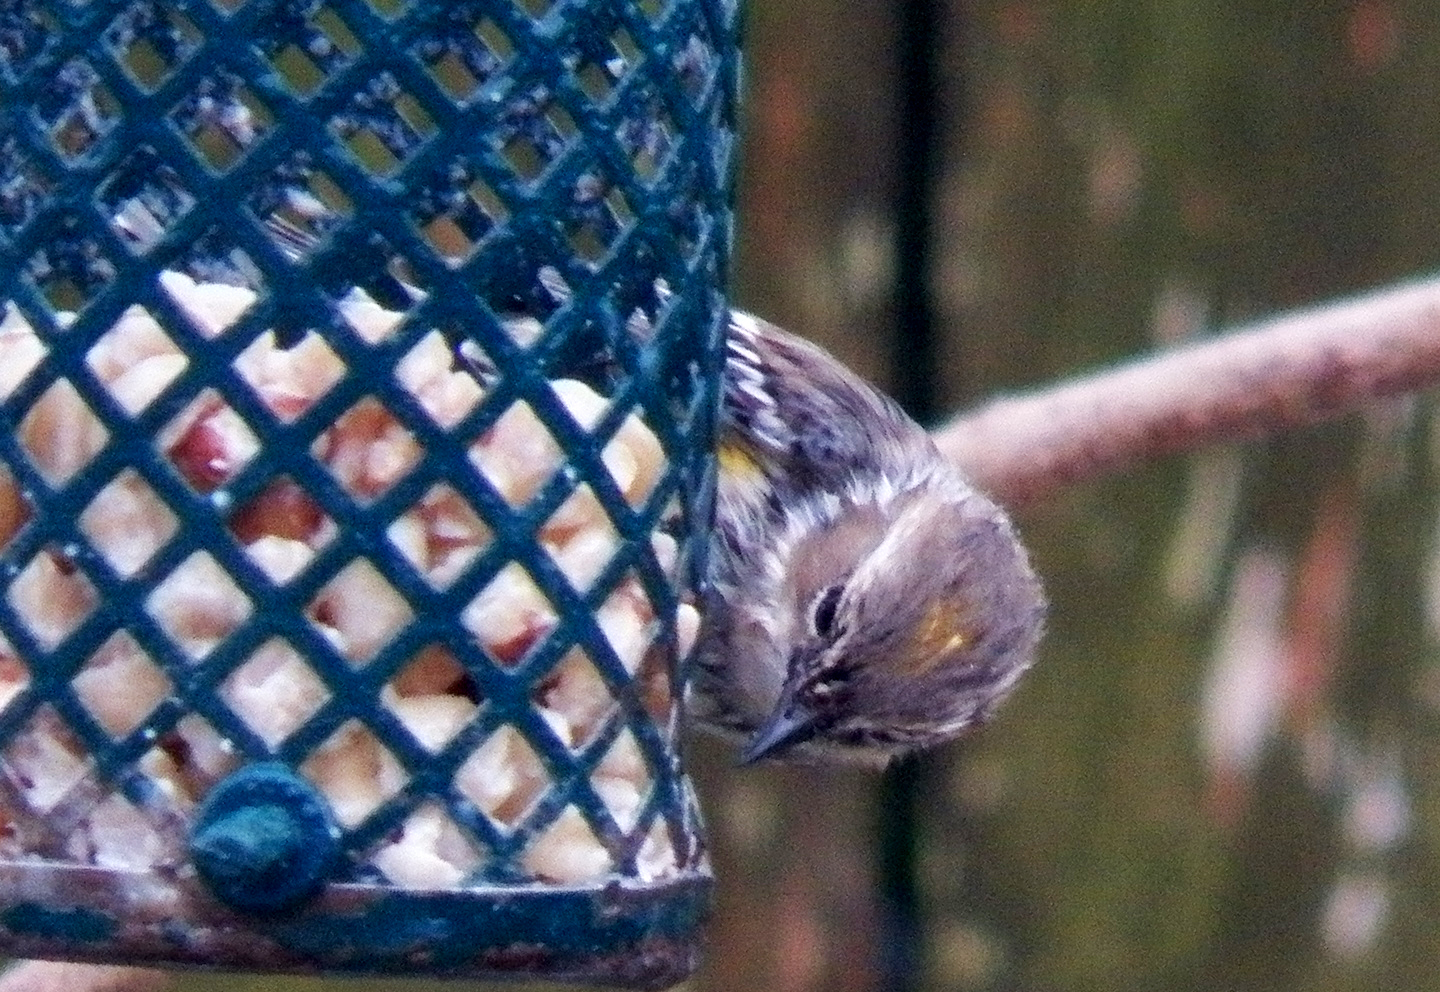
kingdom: Animalia
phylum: Chordata
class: Aves
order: Passeriformes
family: Parulidae
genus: Setophaga
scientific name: Setophaga coronata
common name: Myrtle warbler
